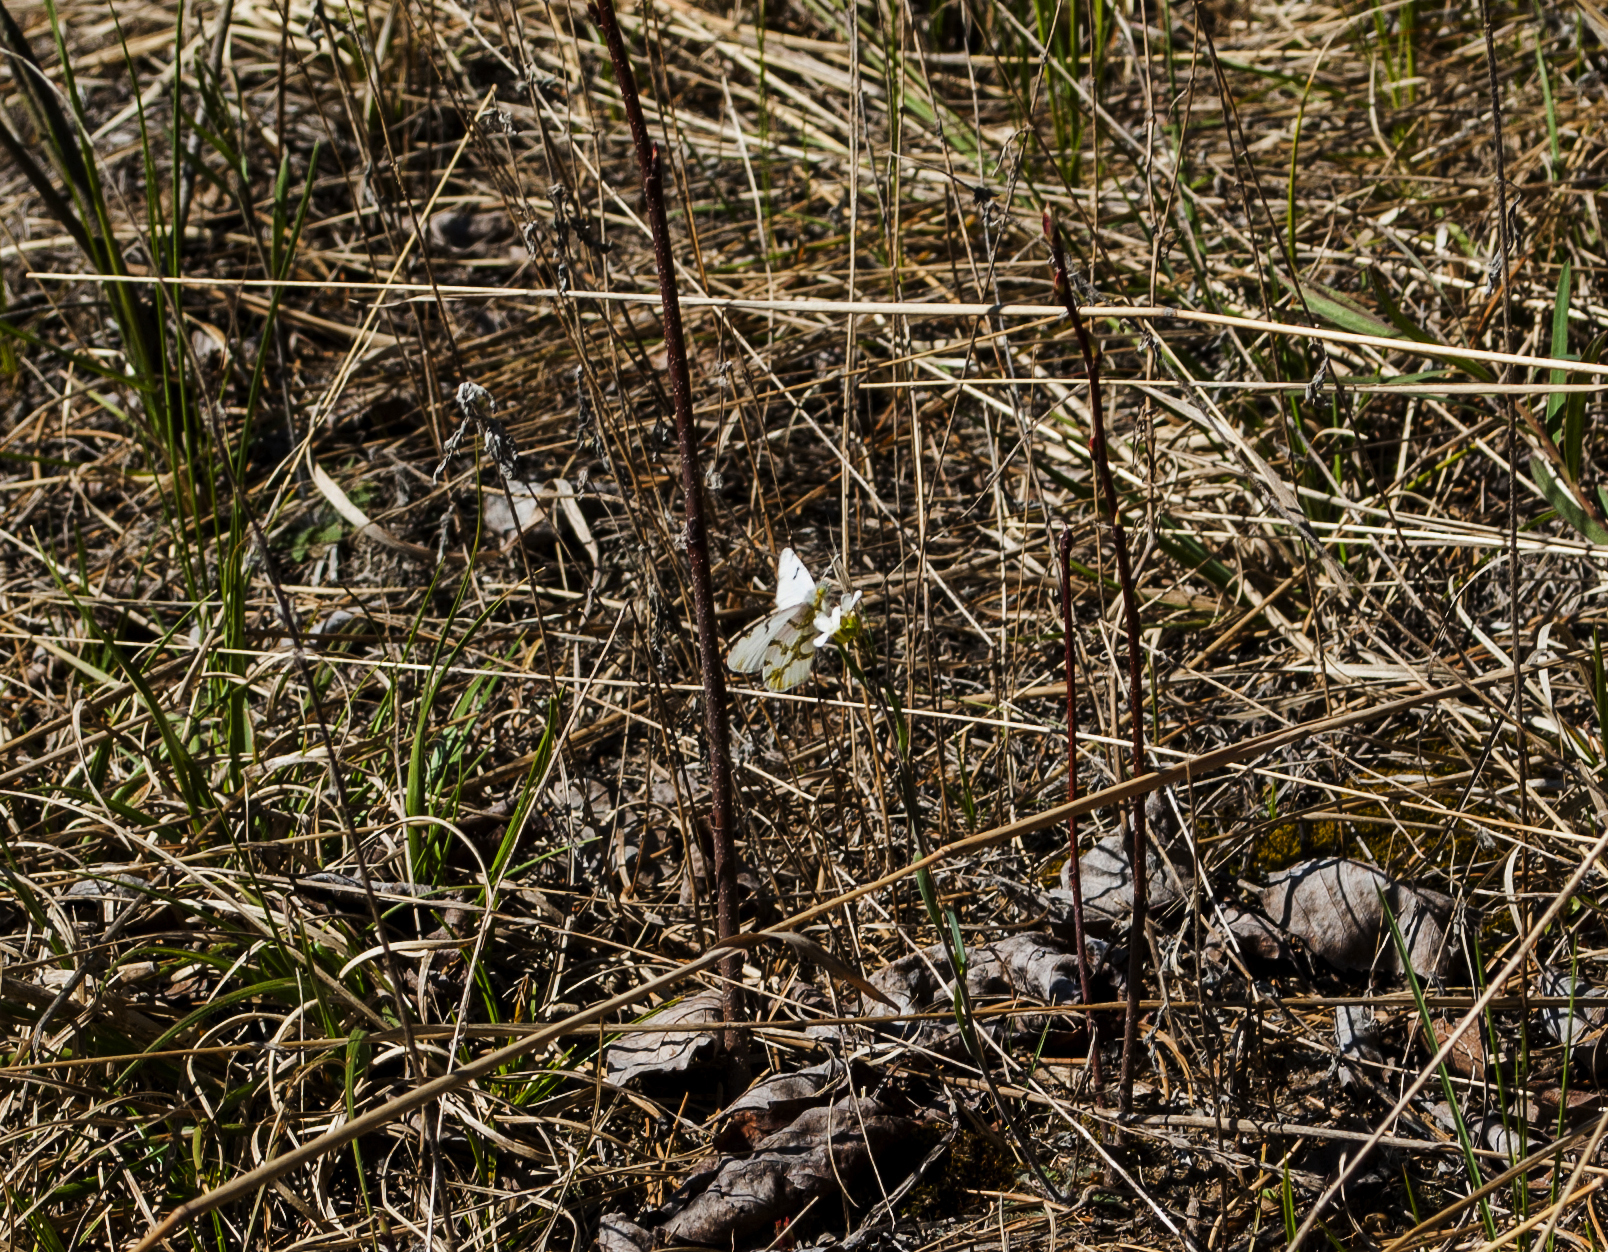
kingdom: Animalia
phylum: Arthropoda
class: Insecta
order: Lepidoptera
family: Pieridae
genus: Euchloe
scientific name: Euchloe olympia
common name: Olympia
